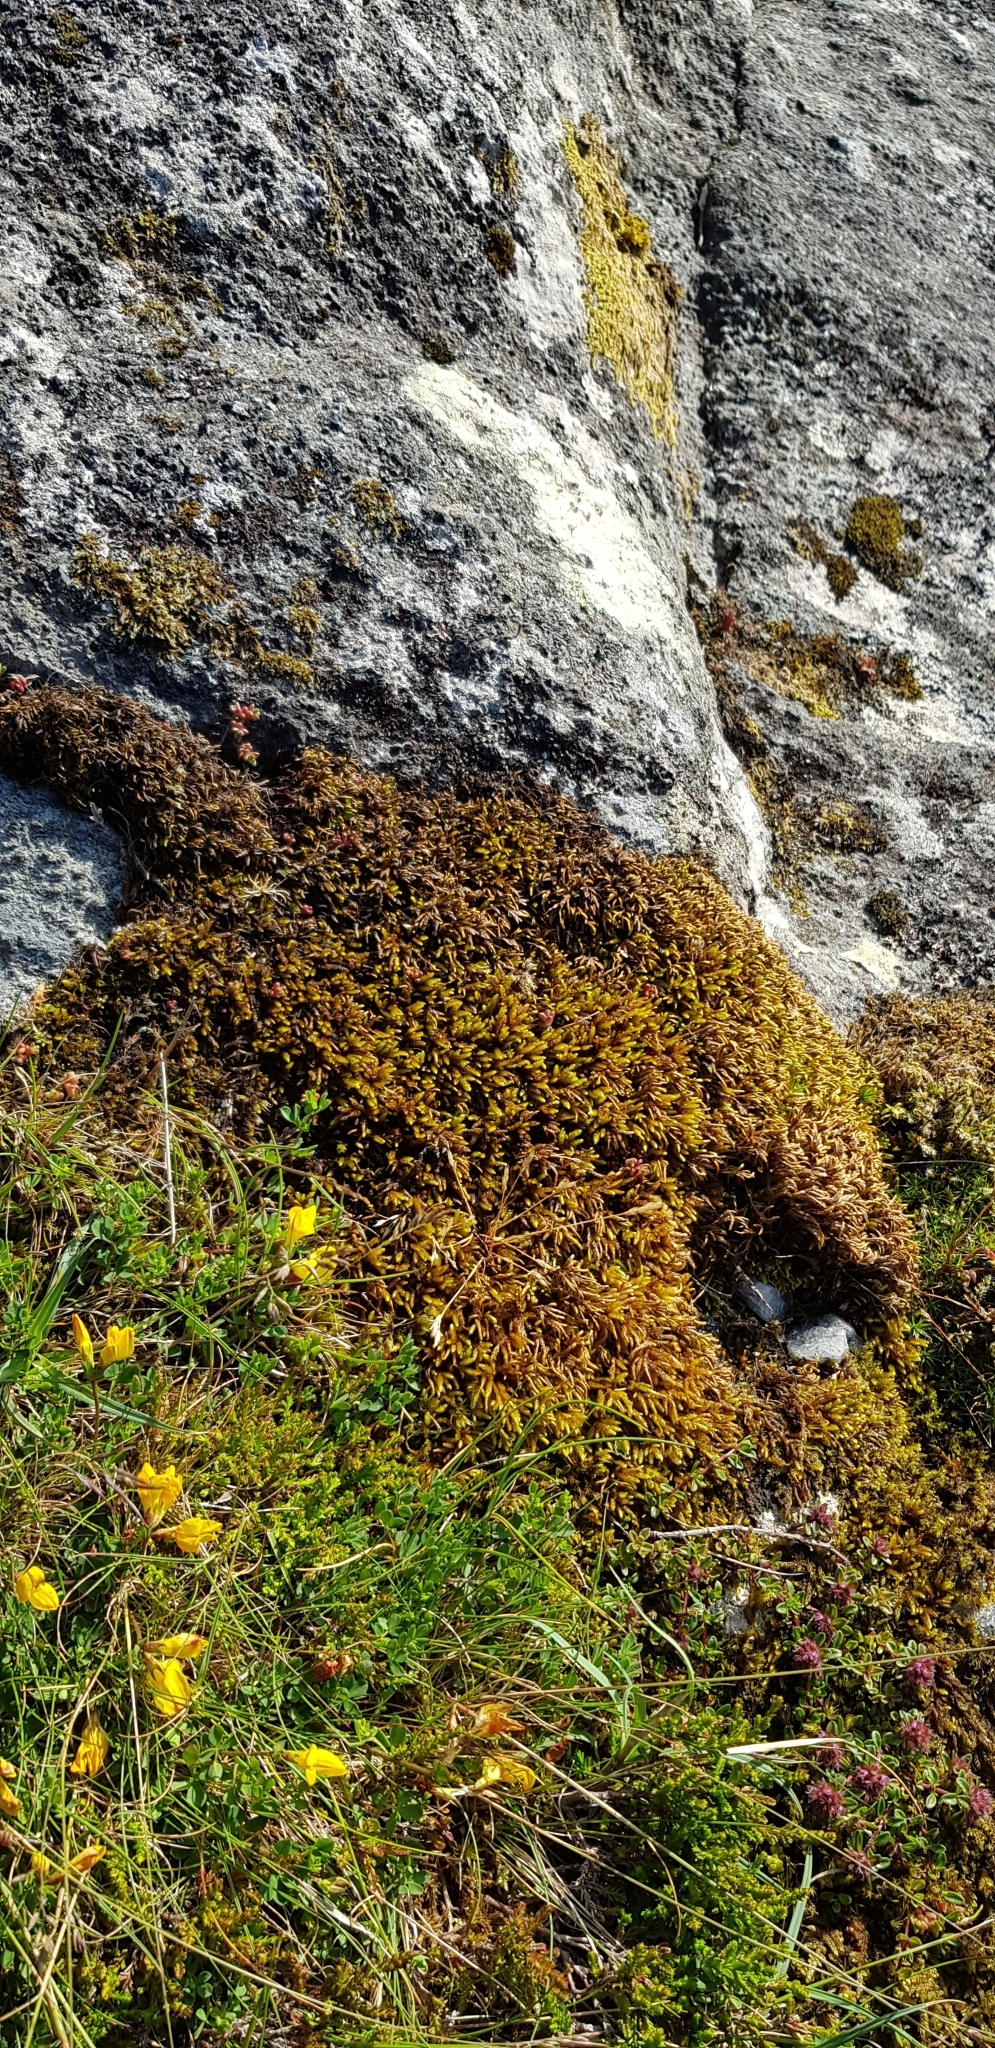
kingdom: Plantae
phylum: Bryophyta
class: Bryopsida
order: Hypnales
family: Lembophyllaceae
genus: Nogopterium
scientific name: Nogopterium gracile
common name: Bird's-foot wing-moss
